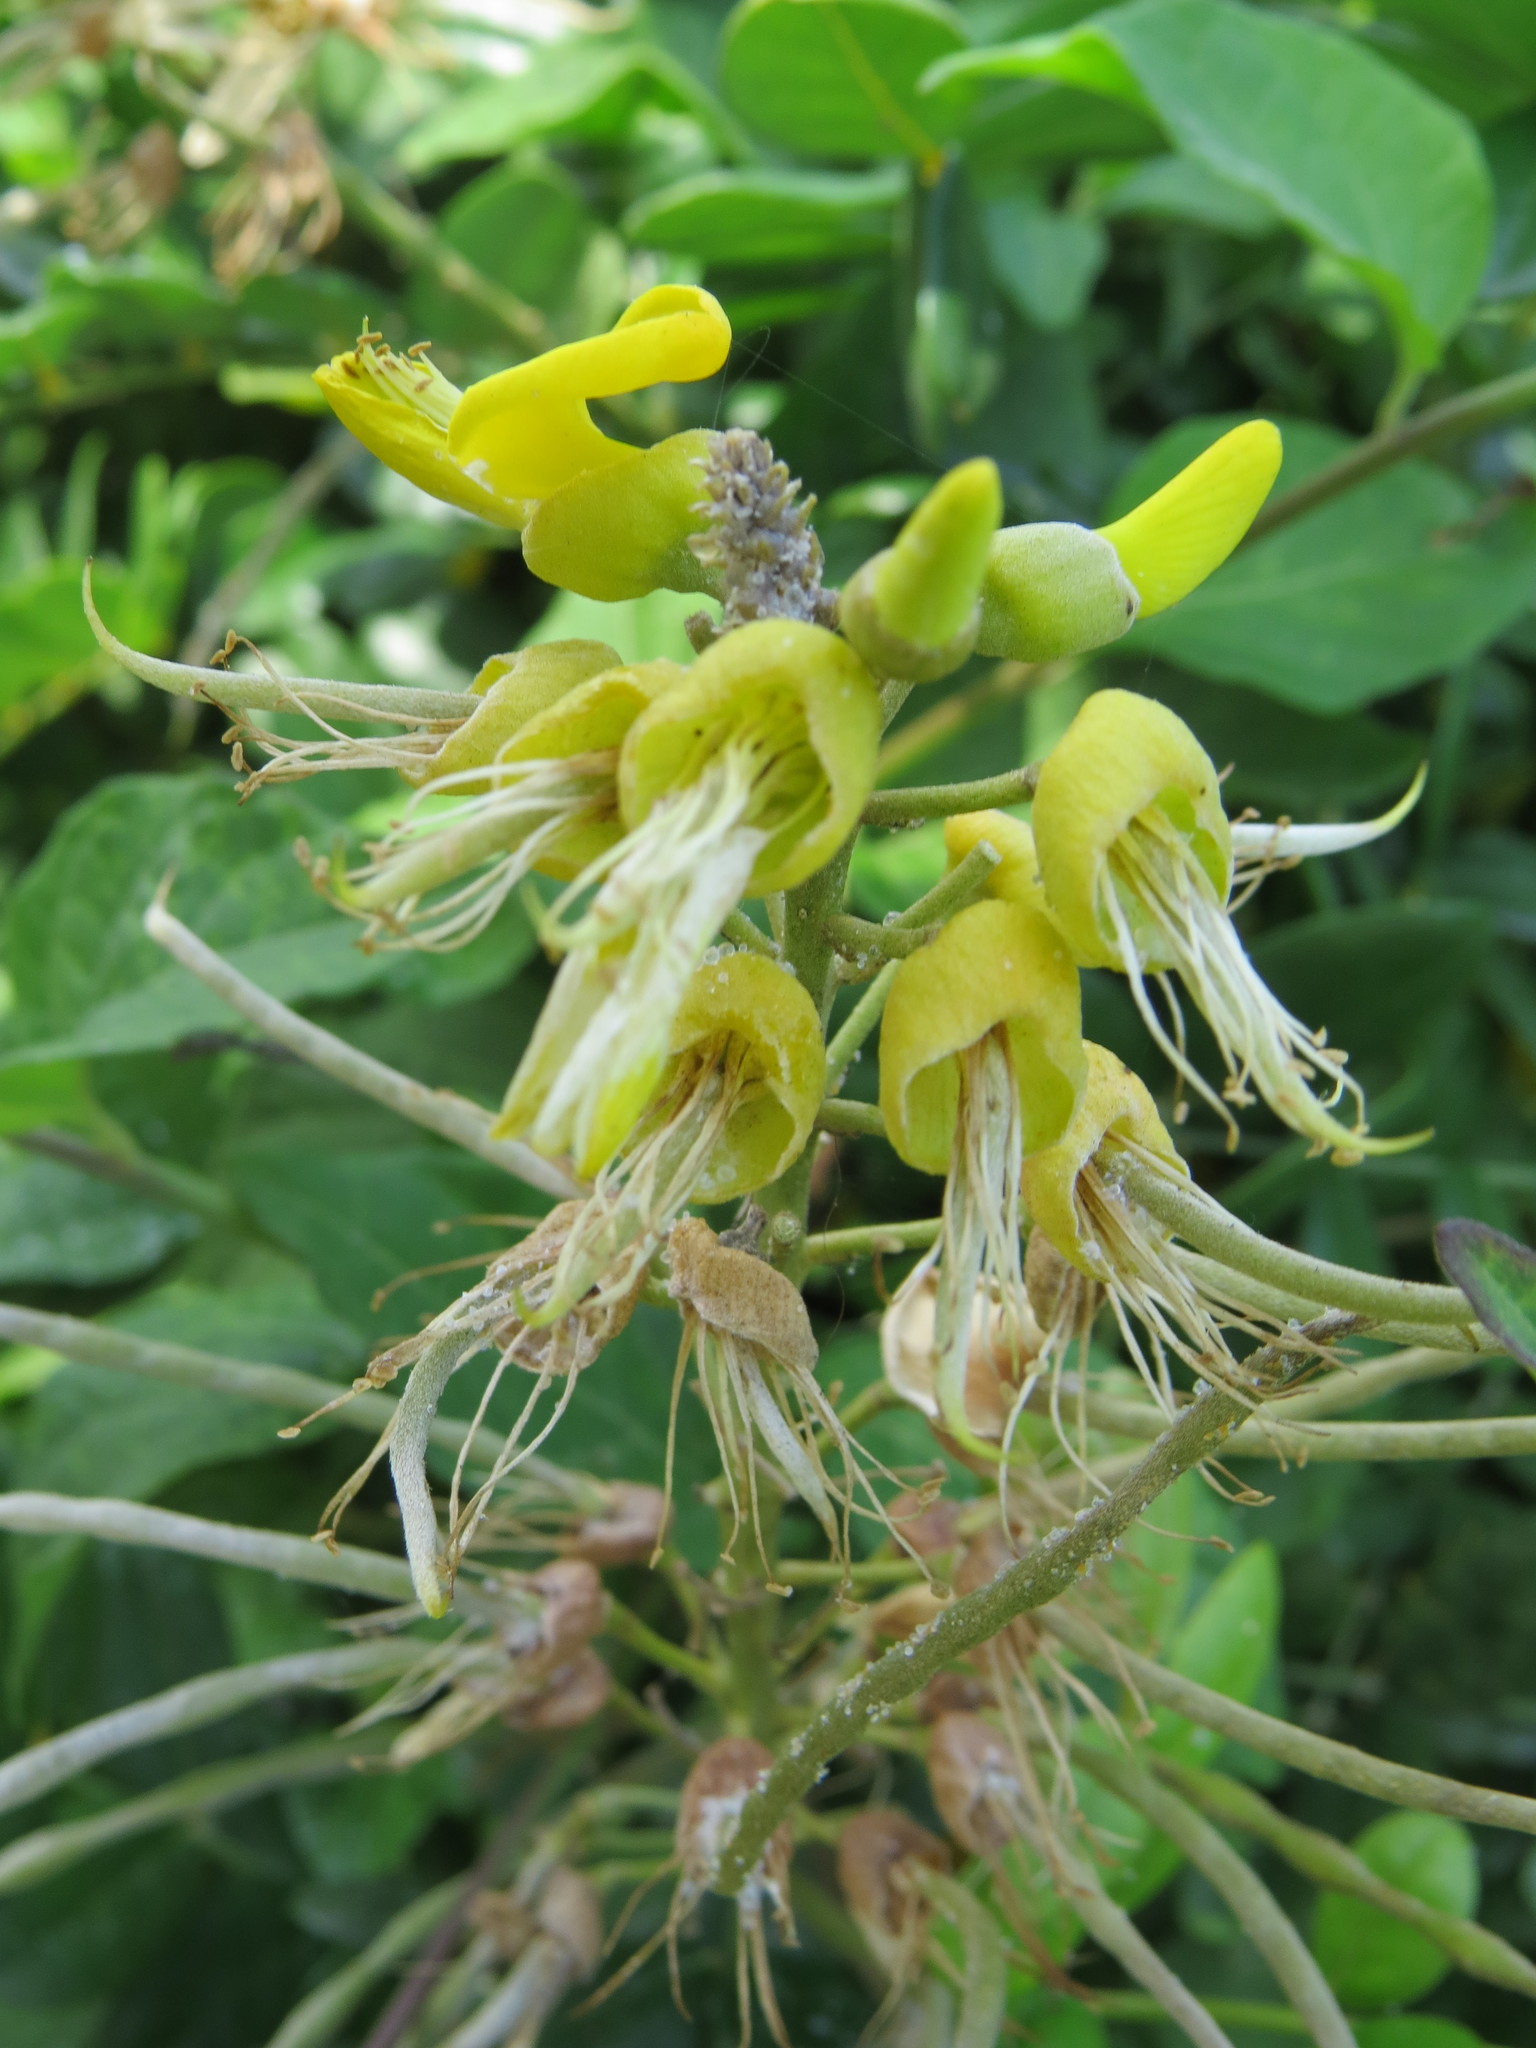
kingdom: Plantae
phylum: Tracheophyta
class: Magnoliopsida
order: Fabales
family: Fabaceae
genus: Sophora
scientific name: Sophora tomentosa
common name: Yellow necklacepod
